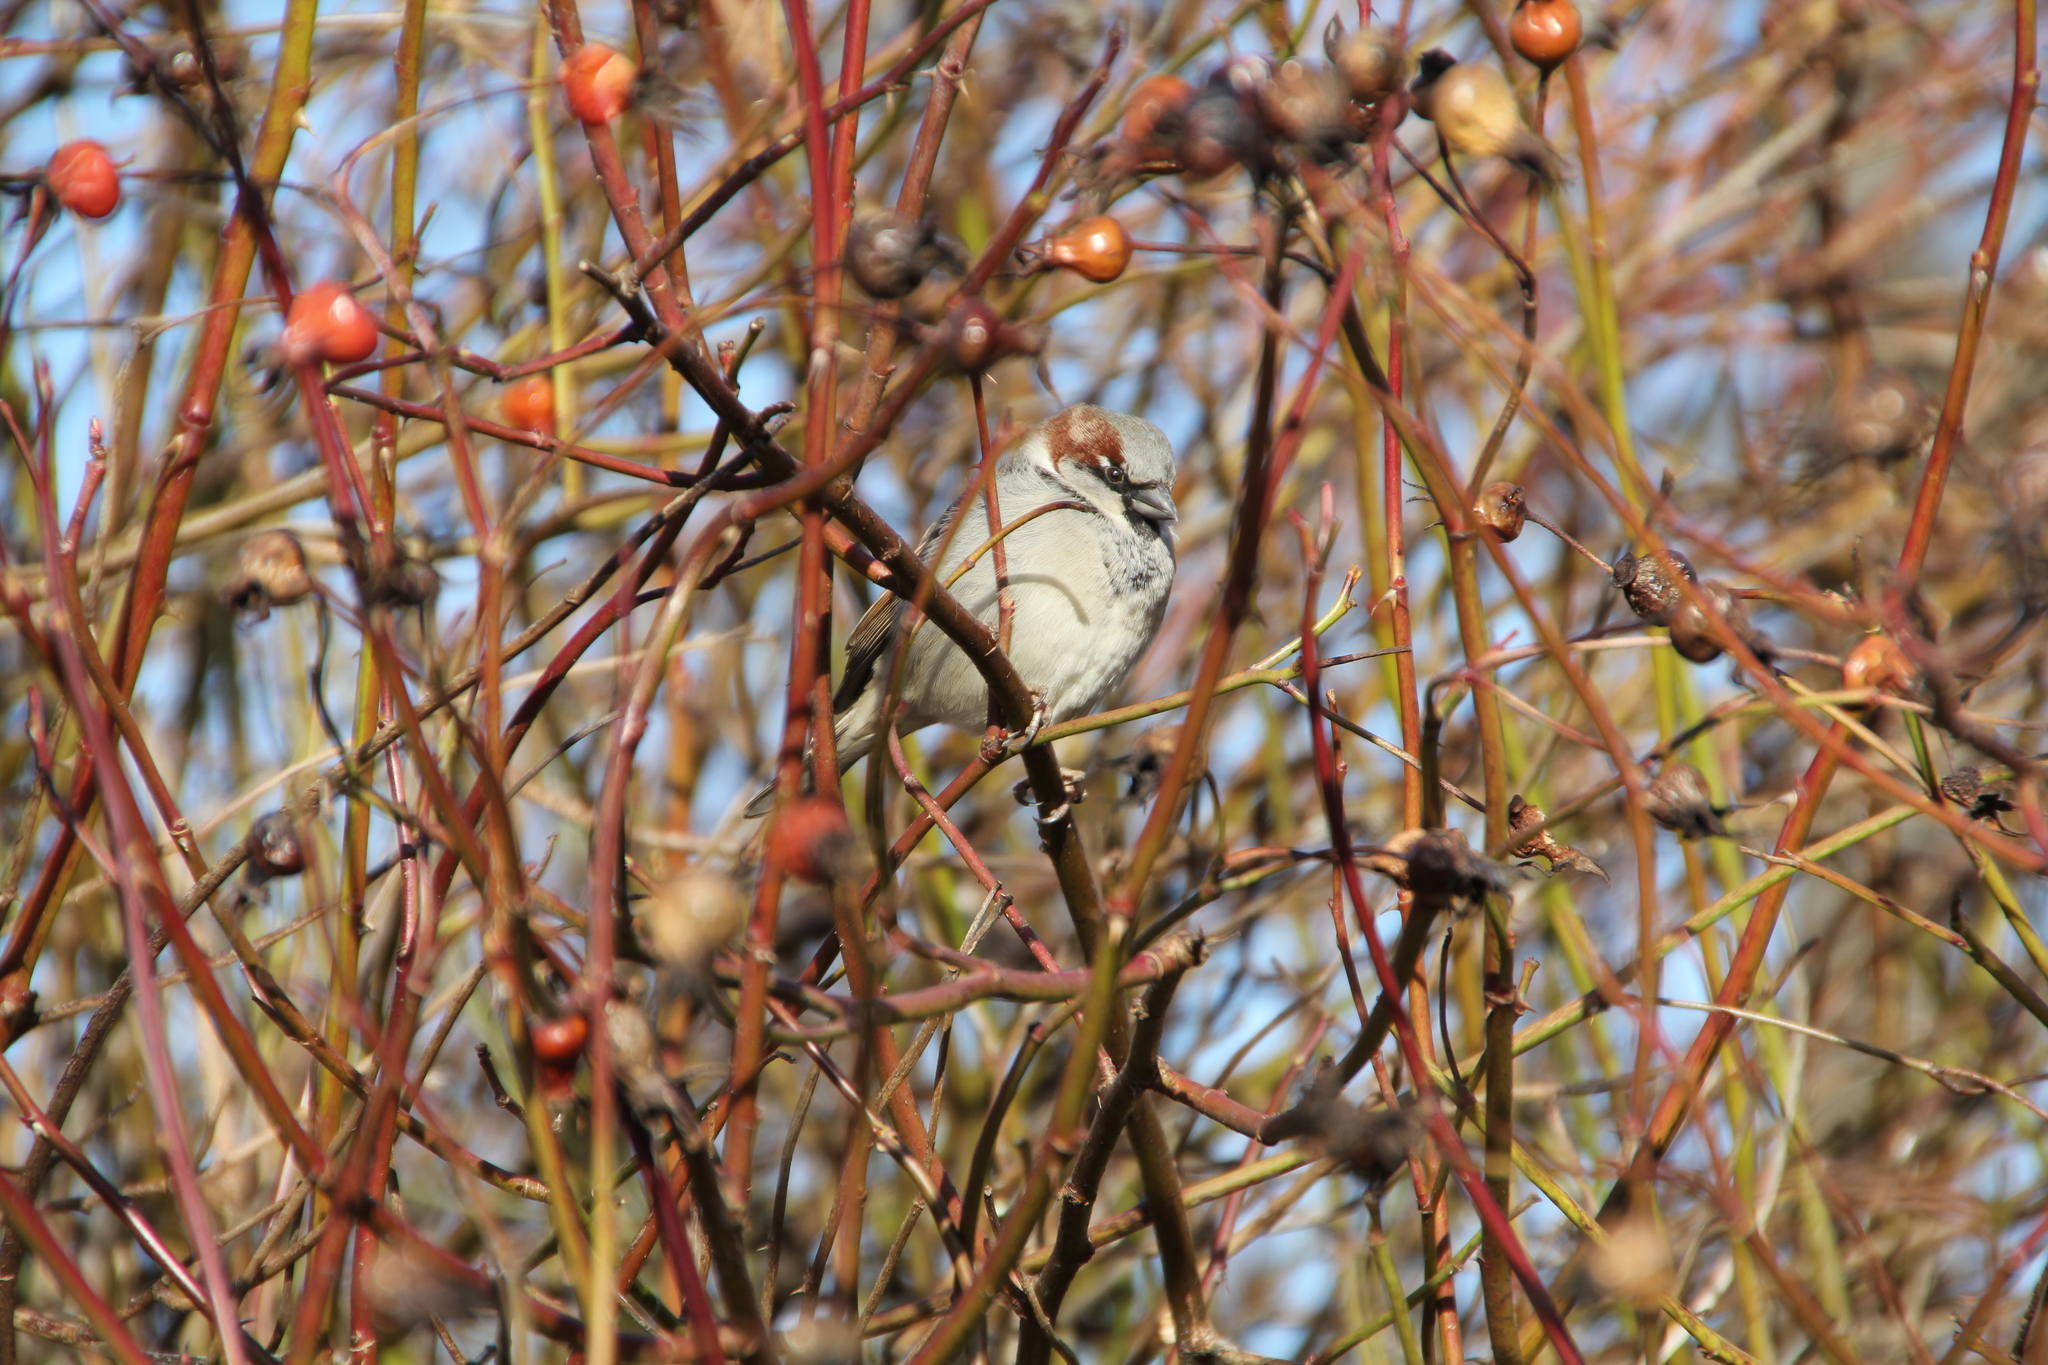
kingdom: Animalia
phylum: Chordata
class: Aves
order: Passeriformes
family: Passeridae
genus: Passer
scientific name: Passer domesticus
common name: House sparrow
